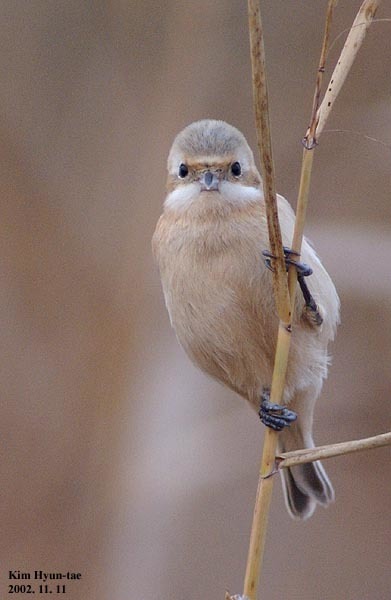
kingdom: Animalia
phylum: Chordata
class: Aves
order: Passeriformes
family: Remizidae
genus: Remiz
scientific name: Remiz consobrinus
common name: Chinese penduline tit
